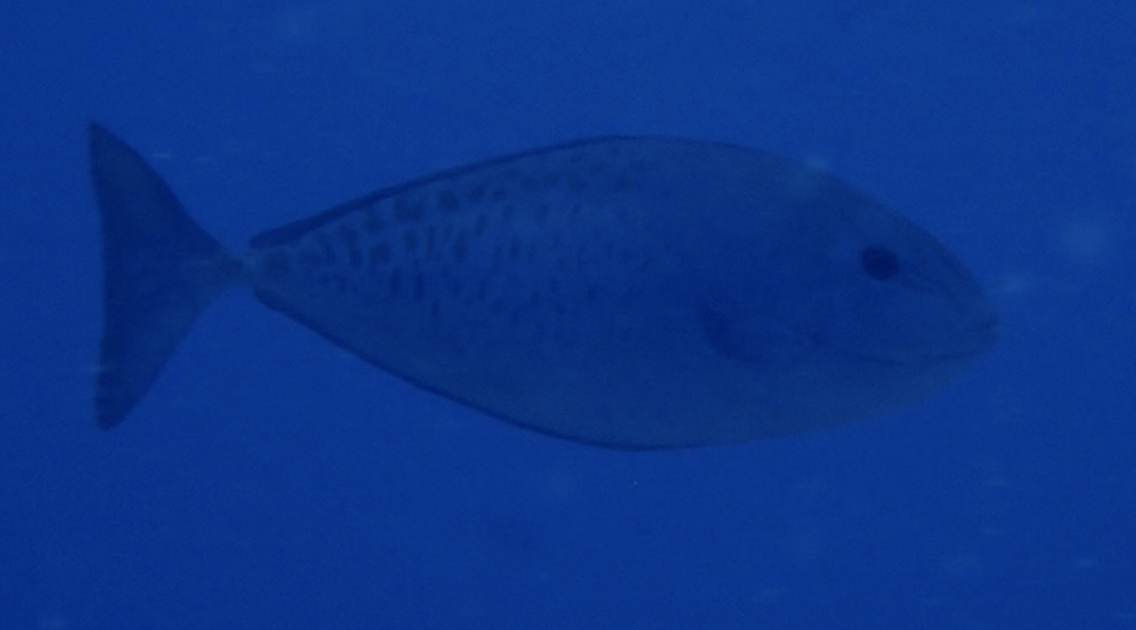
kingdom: Animalia
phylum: Chordata
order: Perciformes
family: Acanthuridae
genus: Naso
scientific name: Naso caesius
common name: Gray unicornfish
